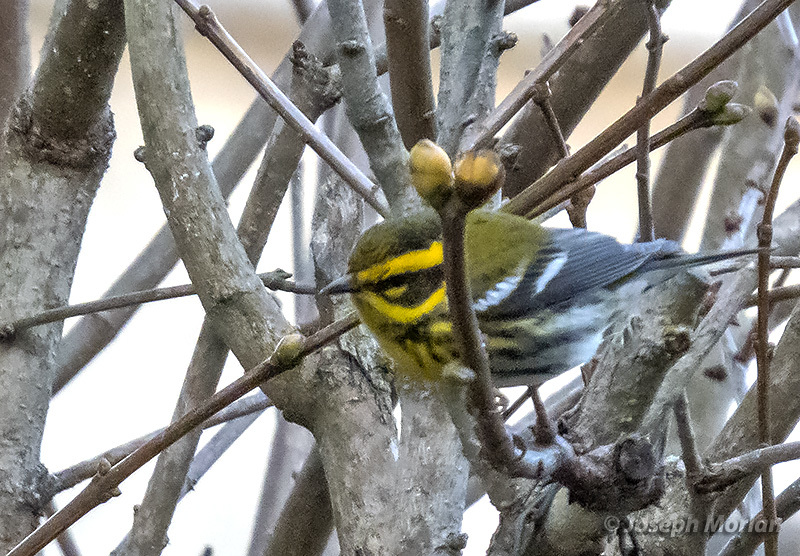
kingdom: Animalia
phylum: Chordata
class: Aves
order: Passeriformes
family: Parulidae
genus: Setophaga
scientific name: Setophaga townsendi
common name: Townsend's warbler
